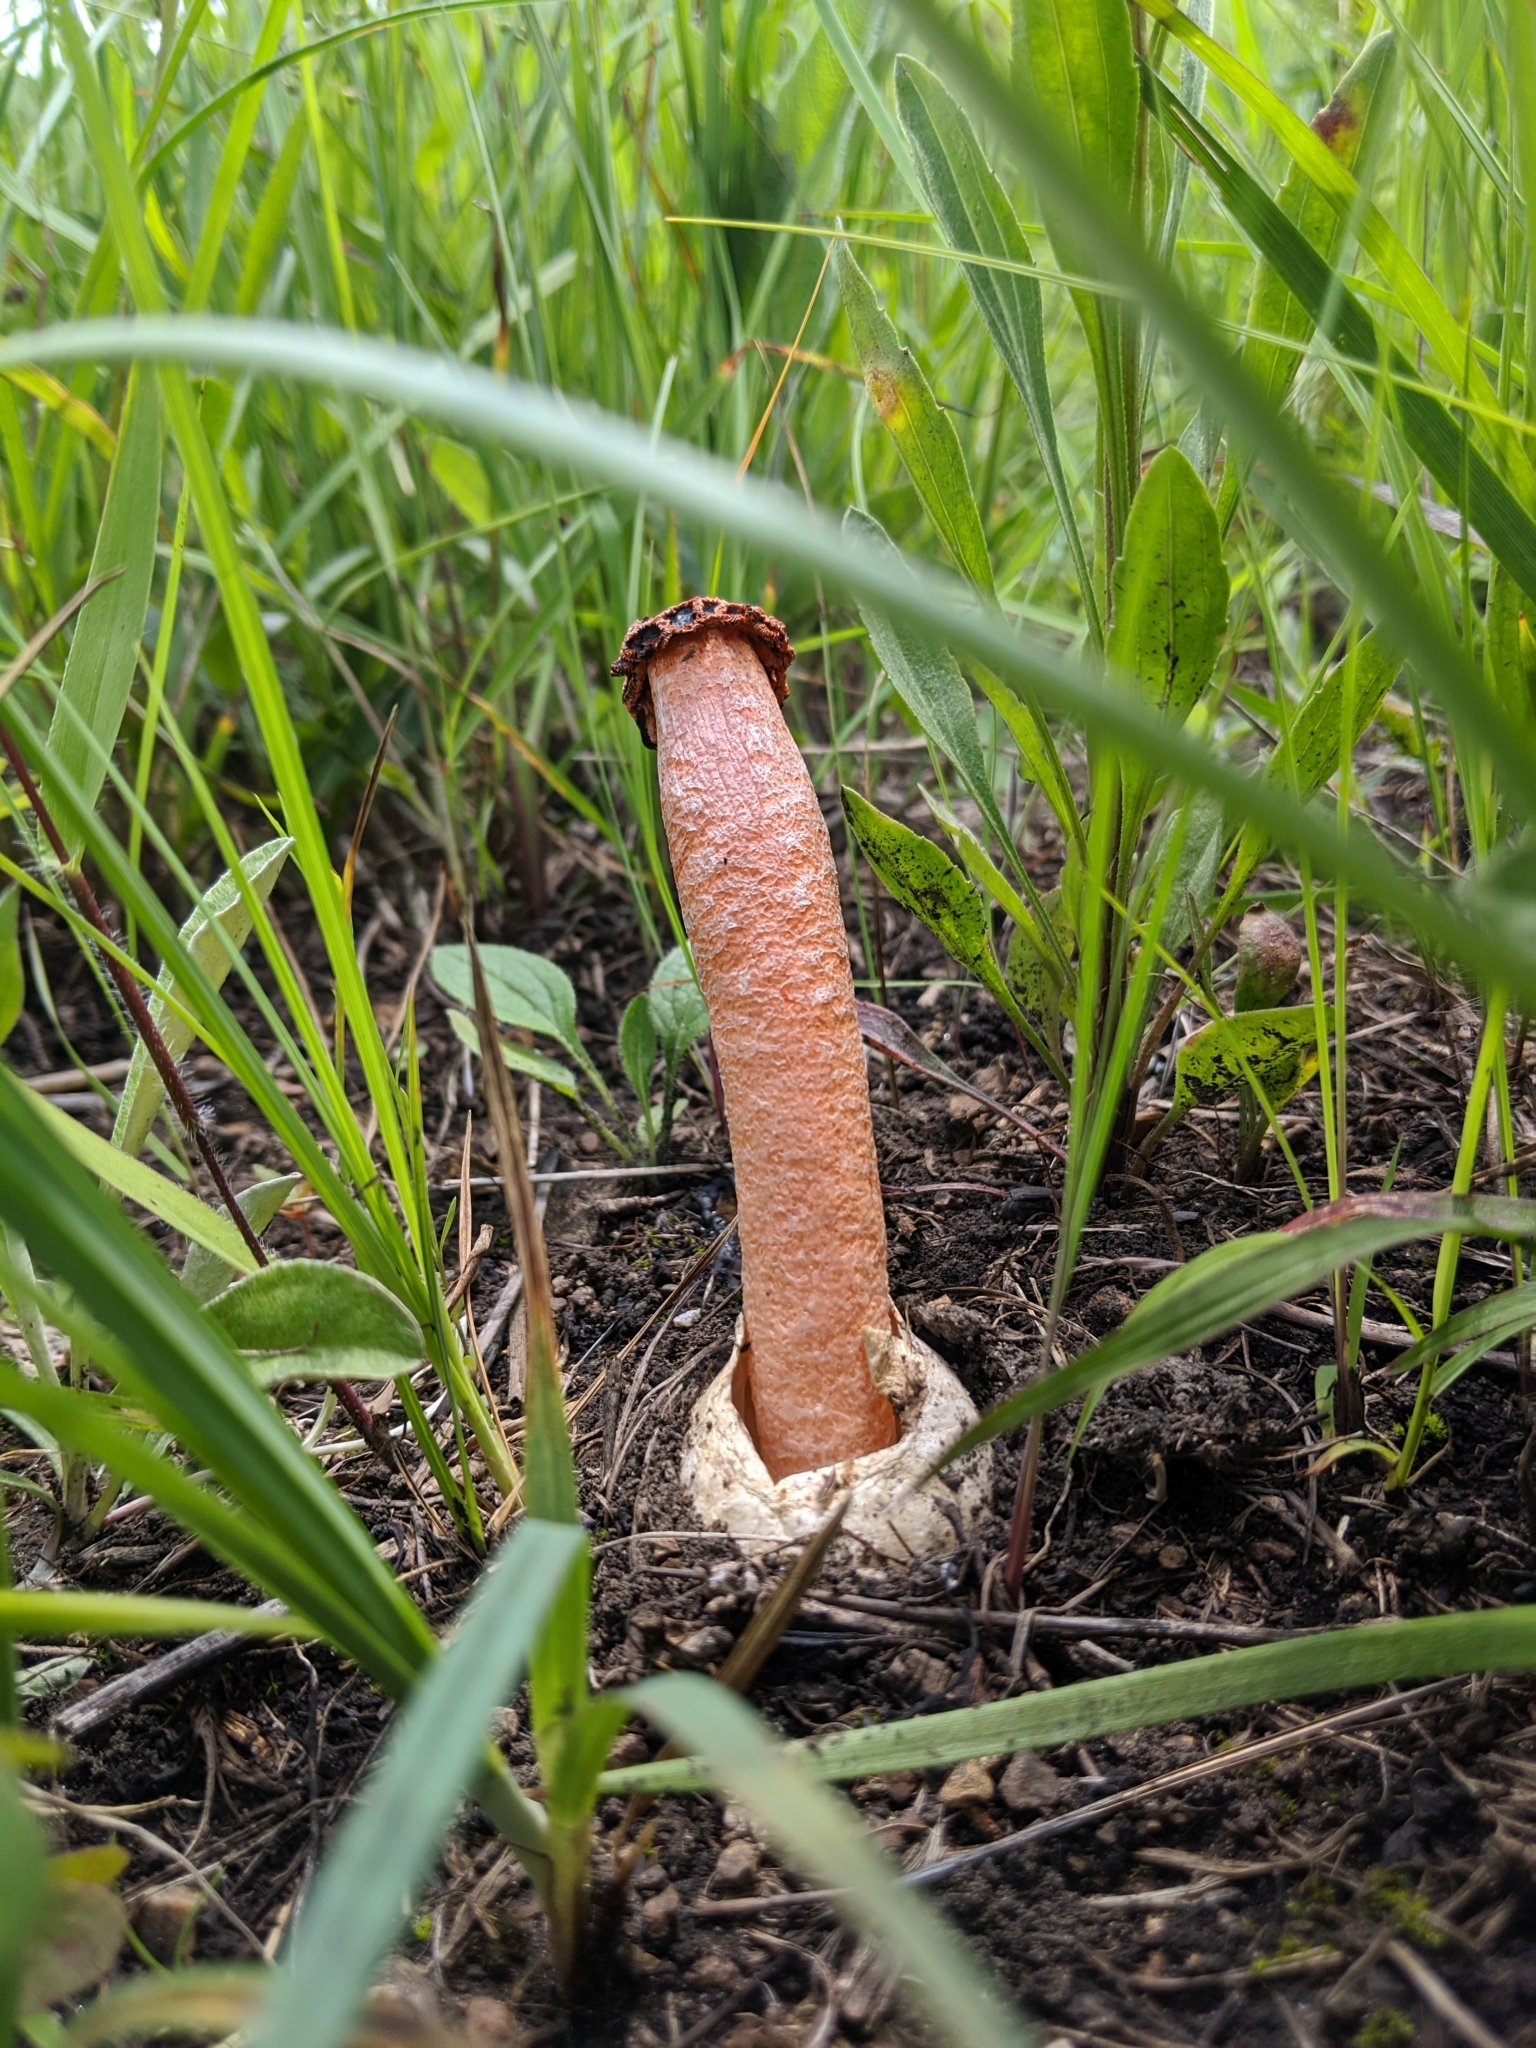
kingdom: Fungi
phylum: Basidiomycota
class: Agaricomycetes
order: Phallales
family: Phallaceae
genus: Lysurus
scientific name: Lysurus periphragmoides
